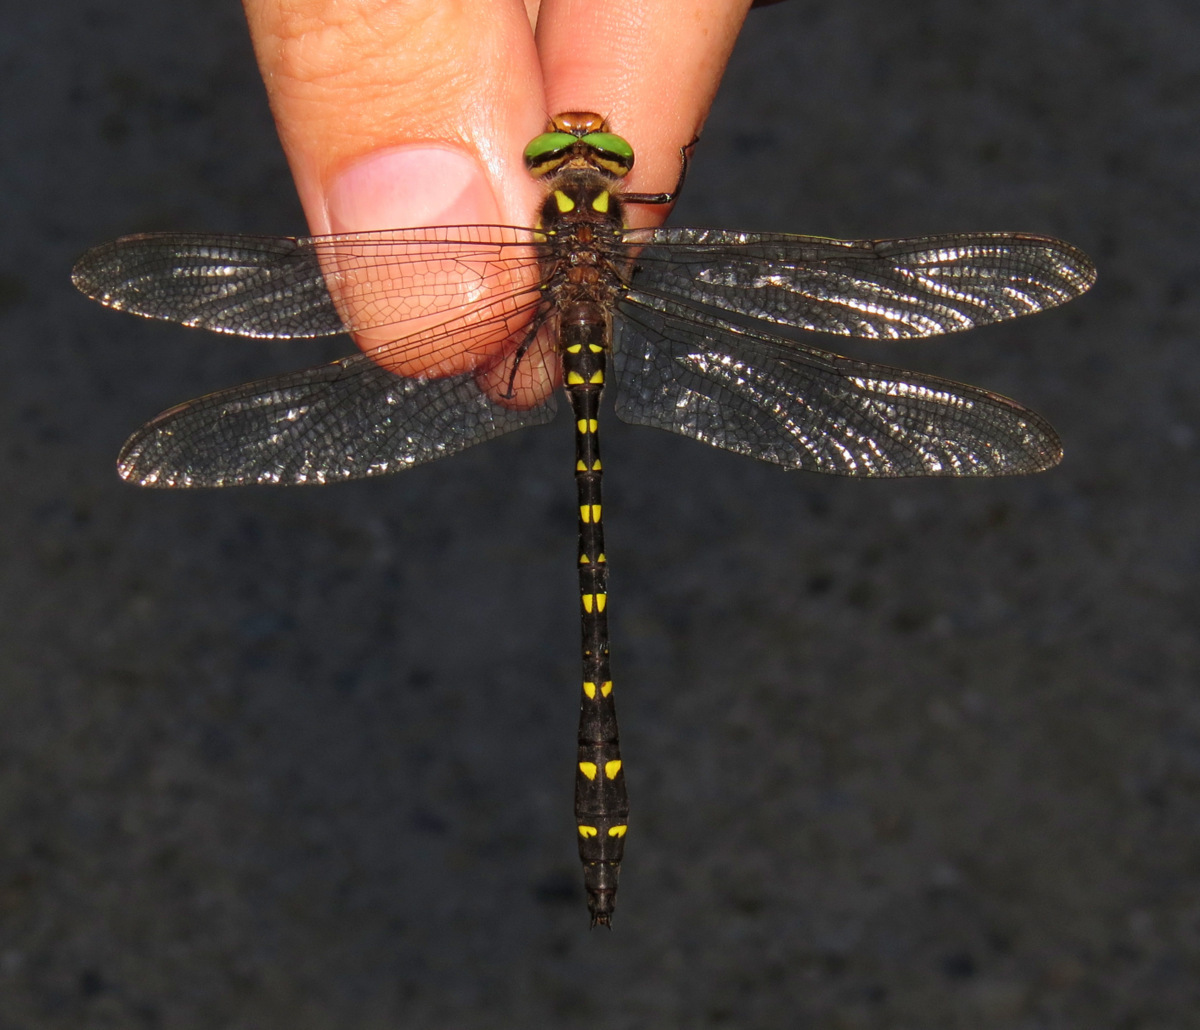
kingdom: Animalia
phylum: Arthropoda
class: Insecta
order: Odonata
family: Cordulegastridae
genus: Cordulegaster
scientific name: Cordulegaster maculata
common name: Twin-spotted spiketail
